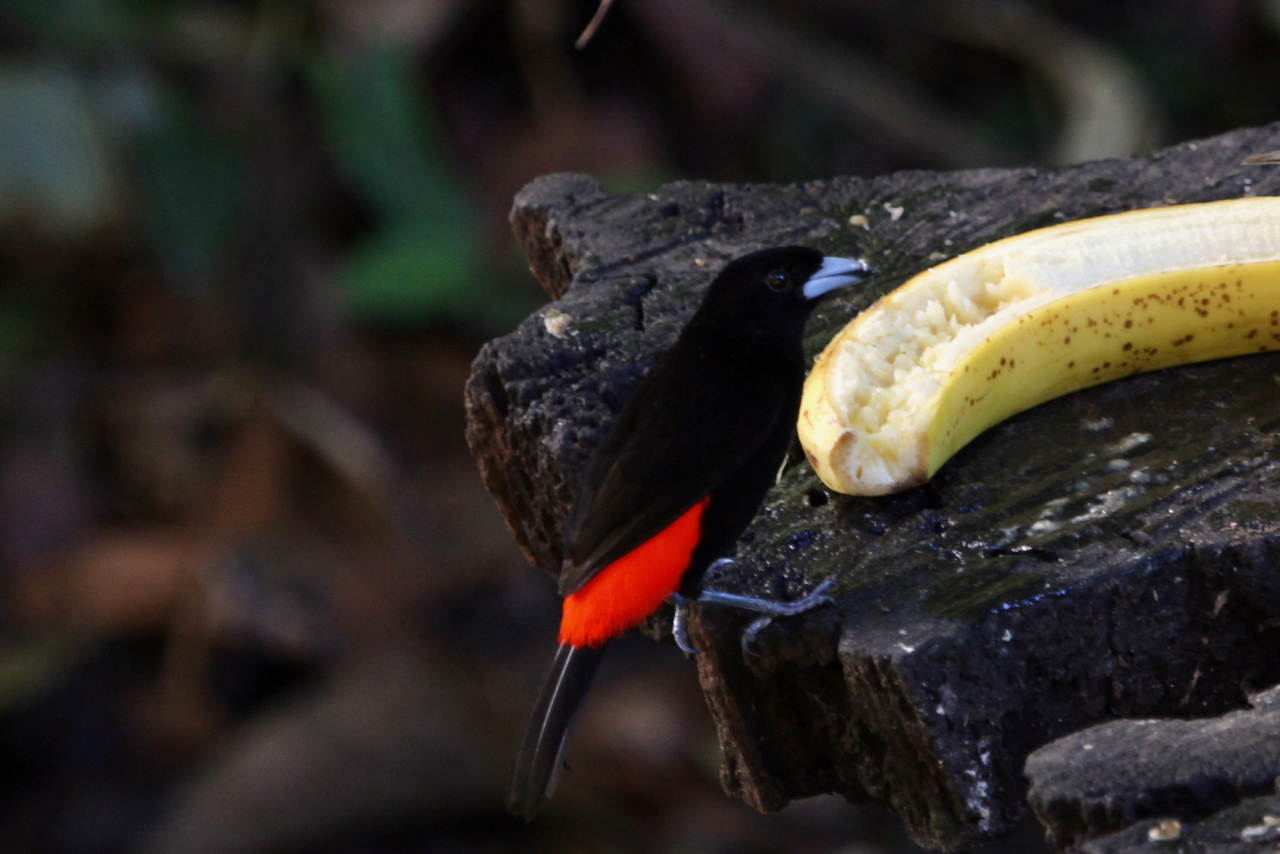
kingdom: Animalia
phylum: Chordata
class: Aves
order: Passeriformes
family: Thraupidae
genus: Ramphocelus
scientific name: Ramphocelus passerinii
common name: Passerini's tanager
